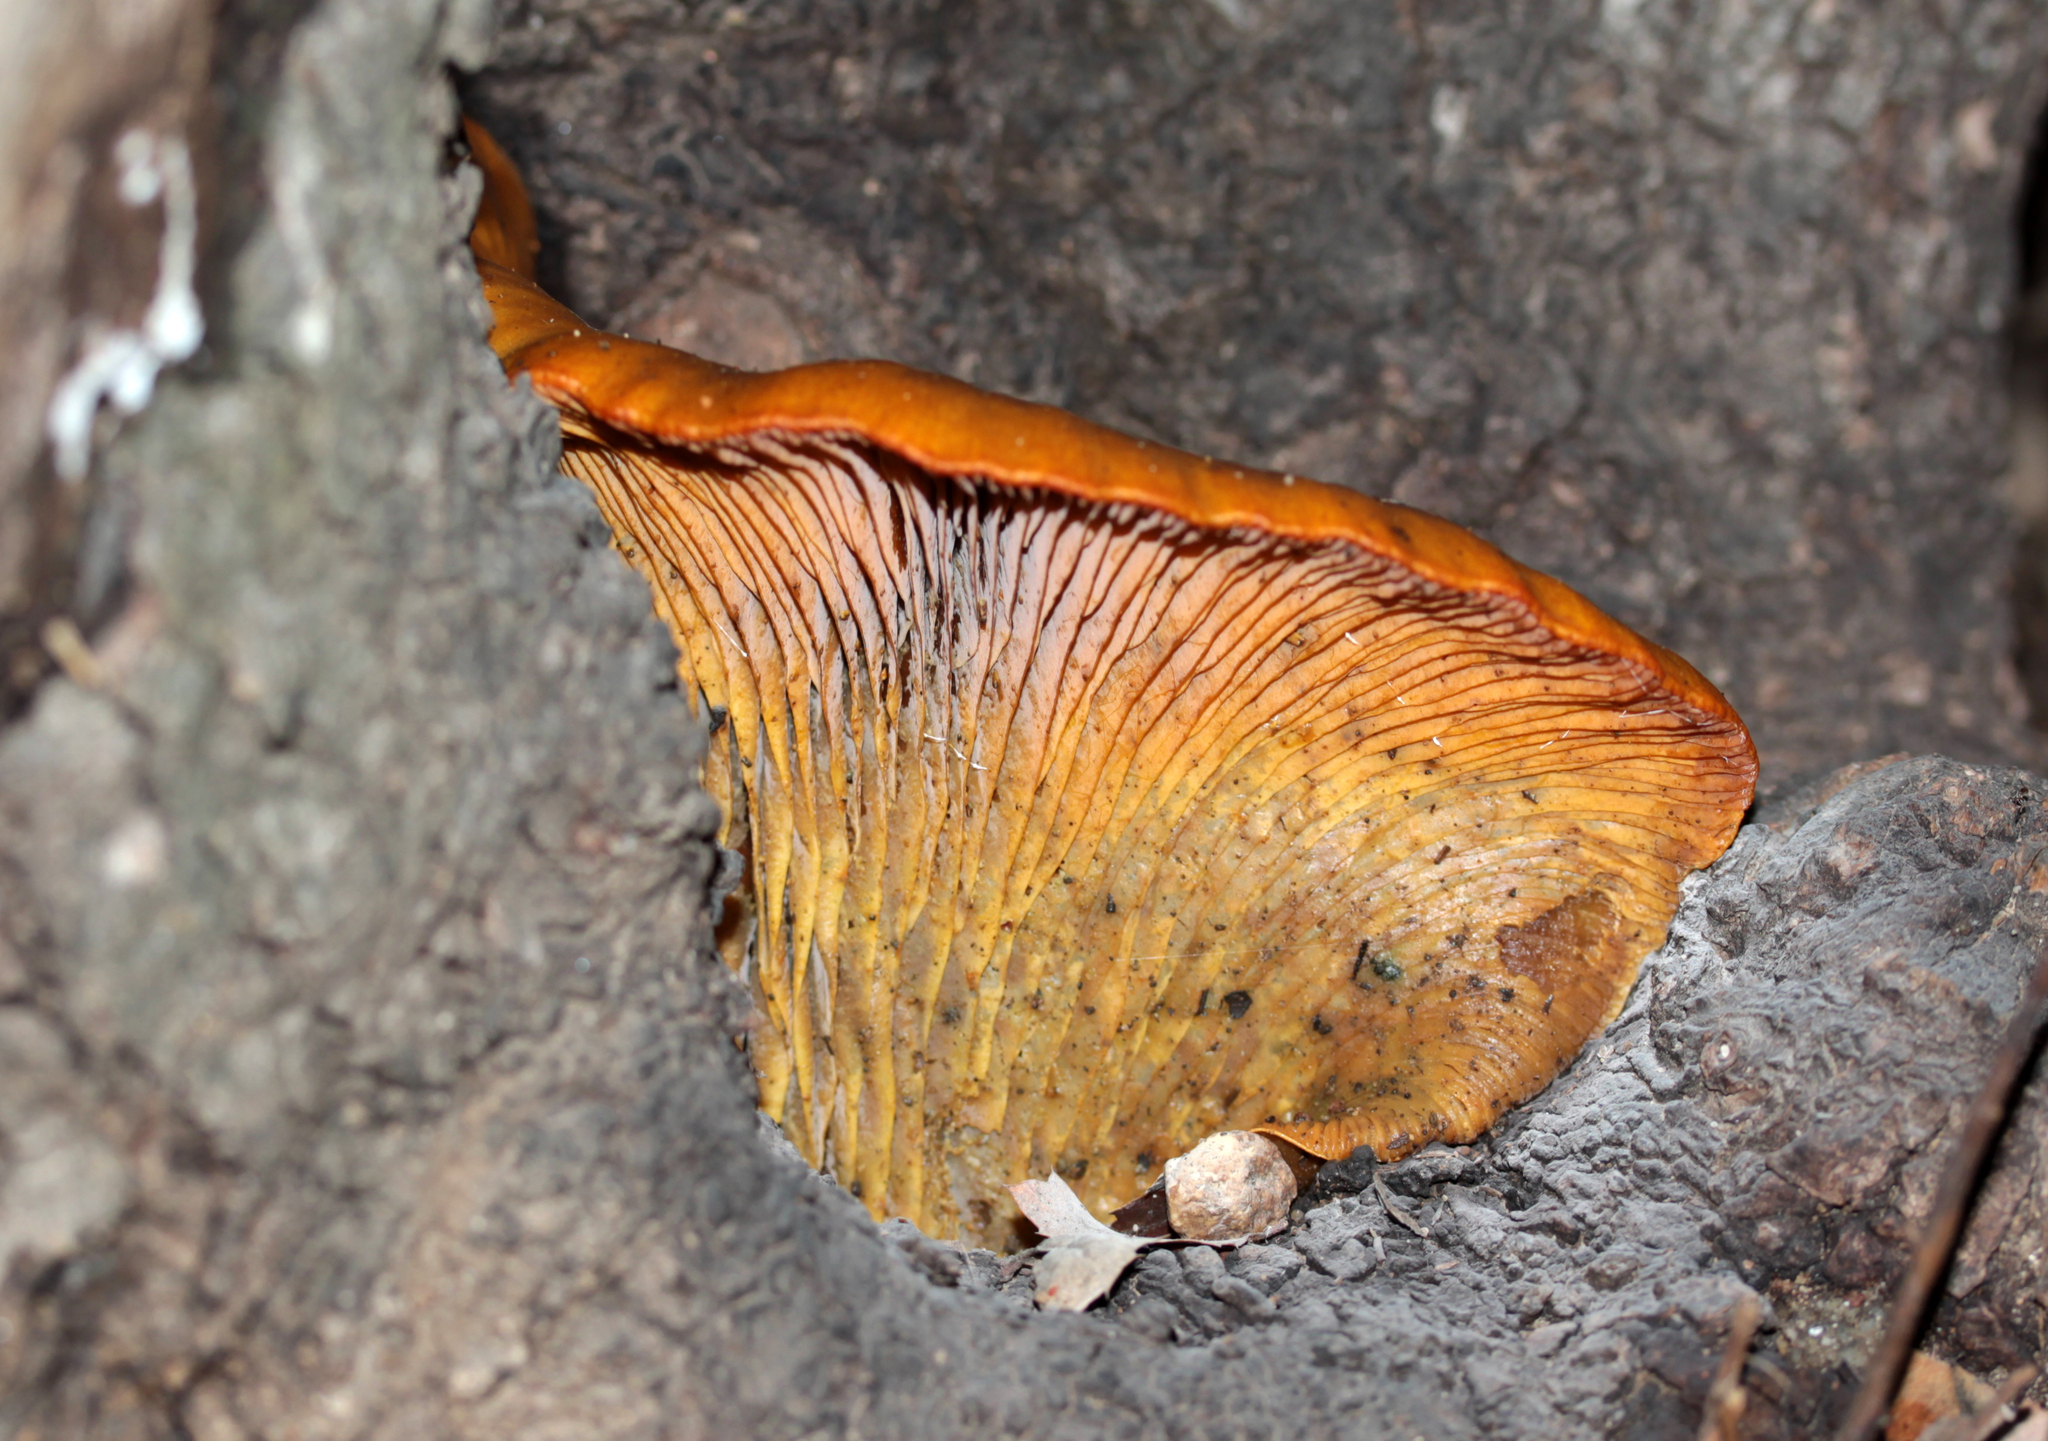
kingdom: Fungi
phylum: Basidiomycota
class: Agaricomycetes
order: Agaricales
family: Omphalotaceae
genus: Omphalotus
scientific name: Omphalotus olivascens
